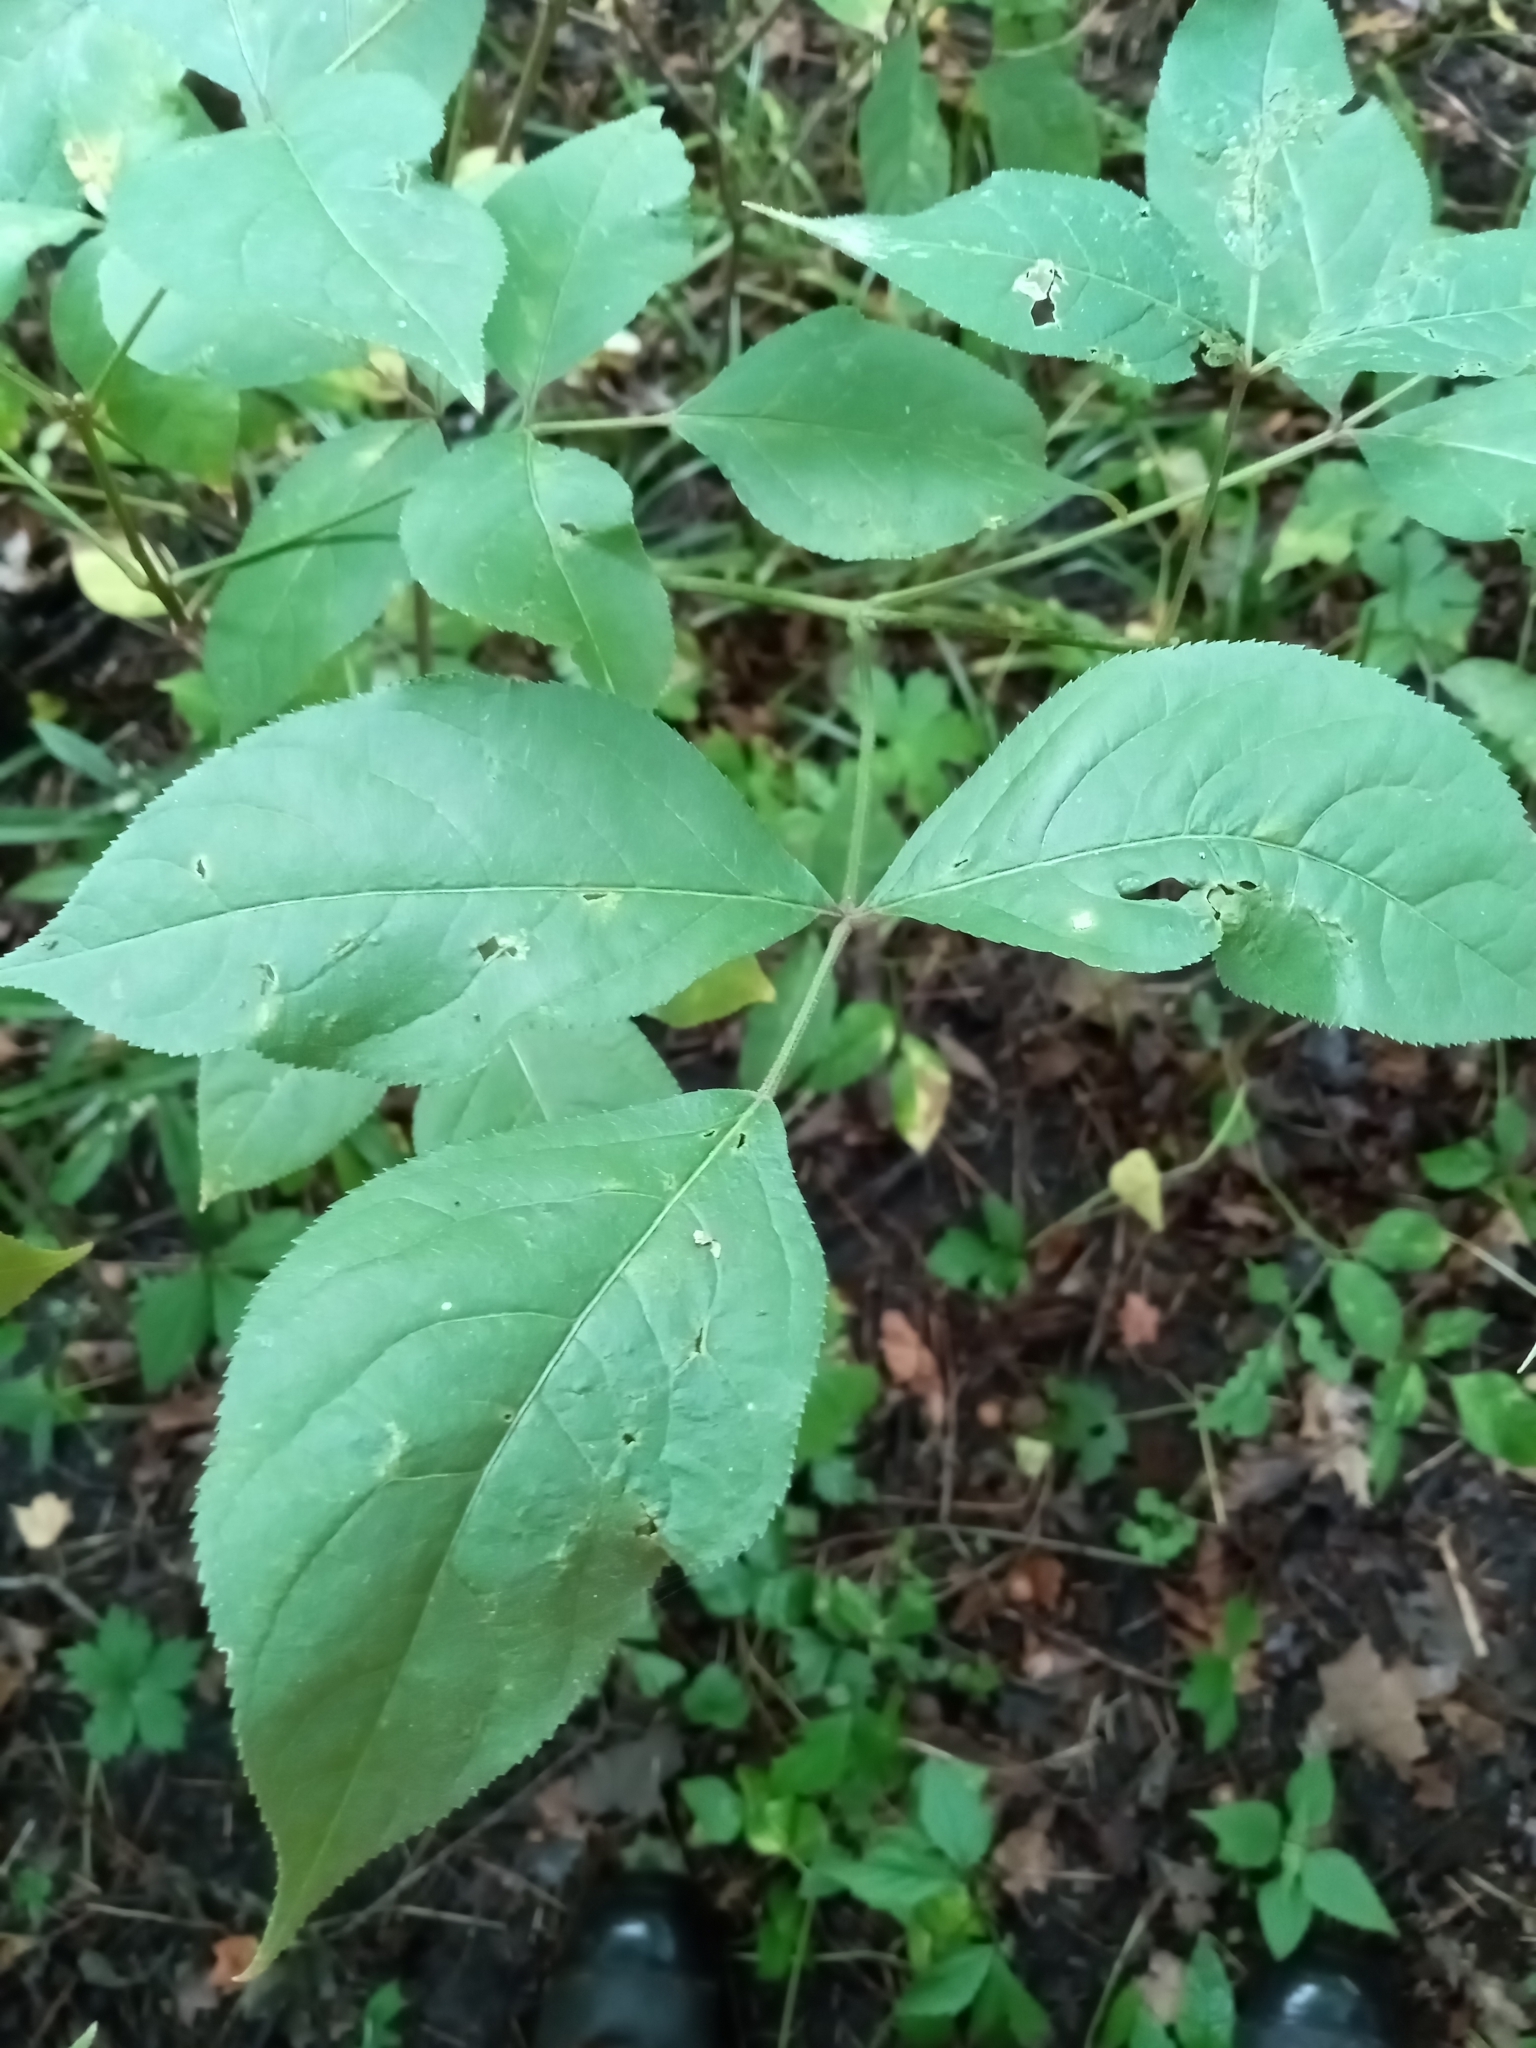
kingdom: Plantae
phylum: Tracheophyta
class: Magnoliopsida
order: Crossosomatales
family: Staphyleaceae
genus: Staphylea
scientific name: Staphylea trifolia
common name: American bladdernut
